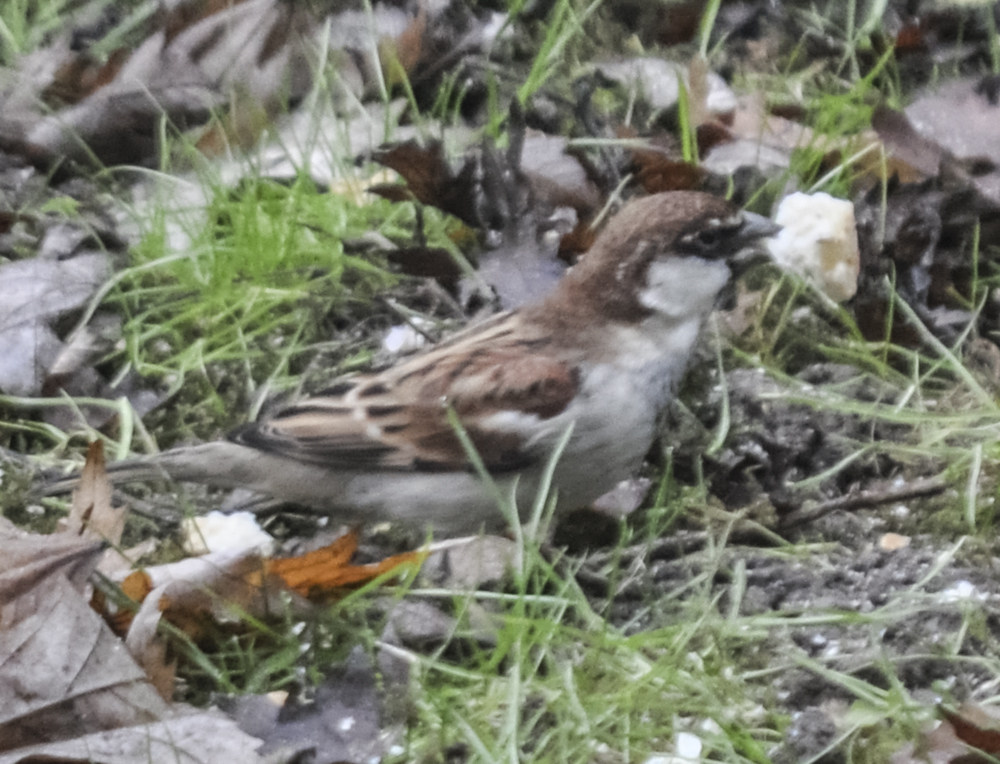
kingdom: Animalia
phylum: Chordata
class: Aves
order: Passeriformes
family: Passeridae
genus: Passer
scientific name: Passer italiae
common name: Italian sparrow
